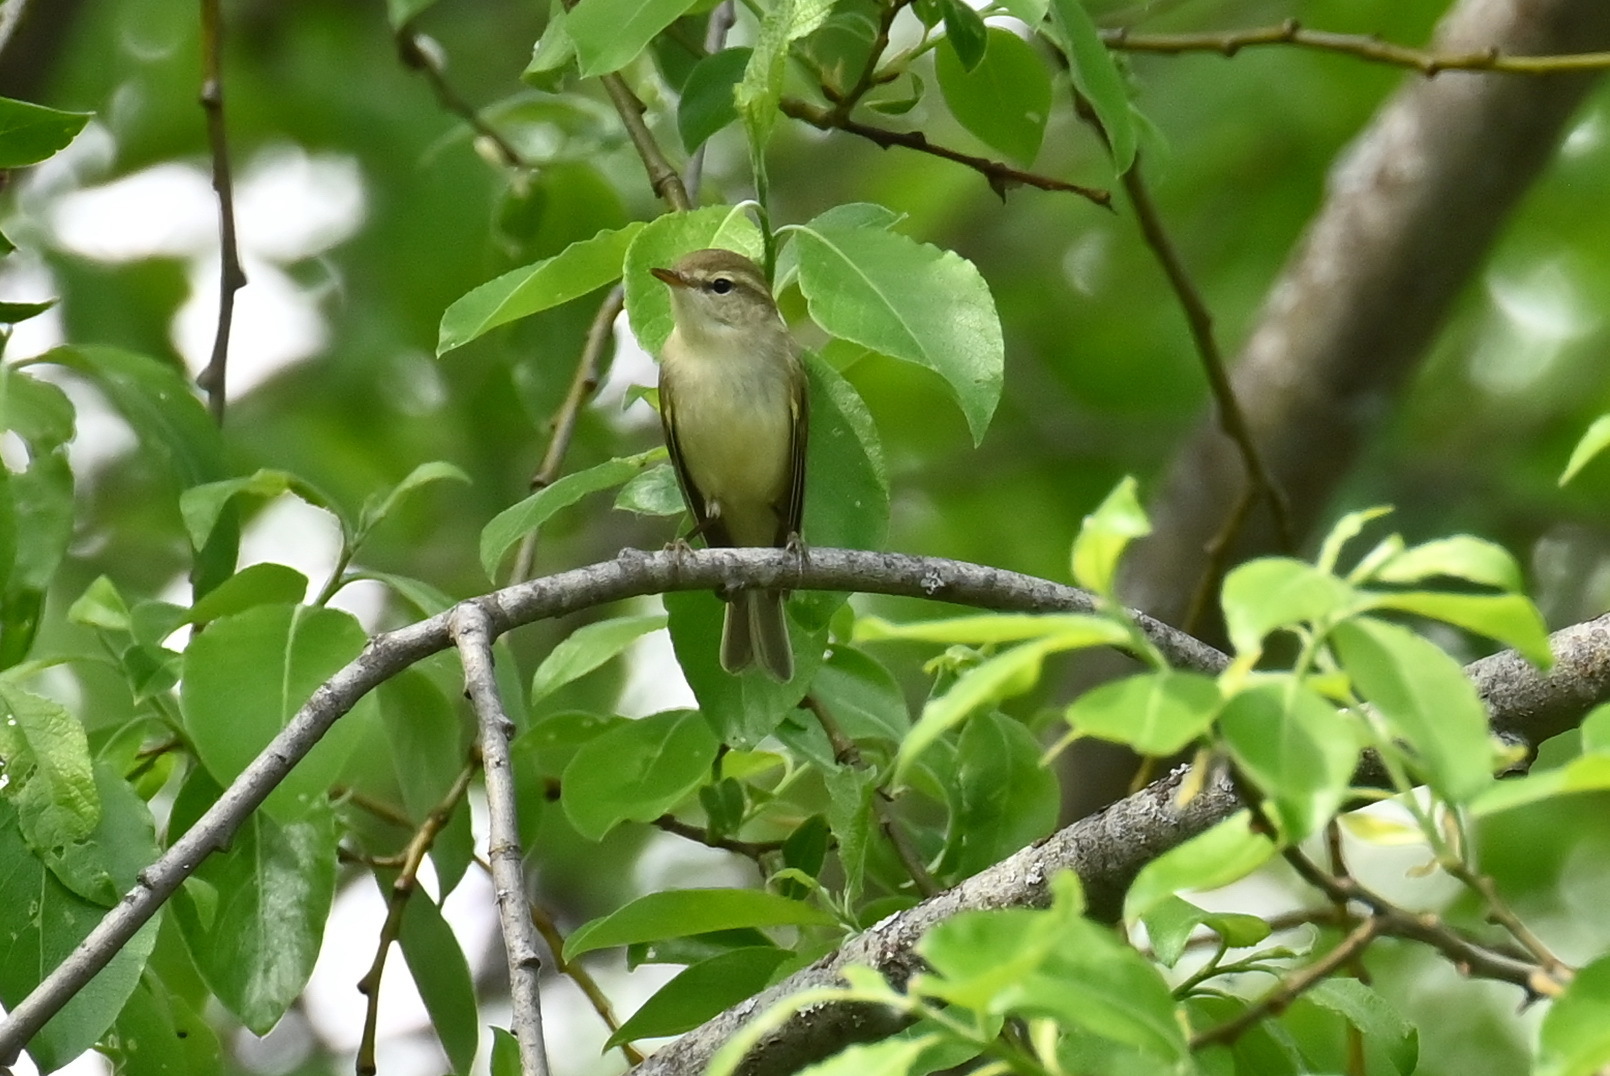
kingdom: Animalia
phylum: Chordata
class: Aves
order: Passeriformes
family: Phylloscopidae
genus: Phylloscopus
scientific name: Phylloscopus trochiloides
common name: Greenish warbler
